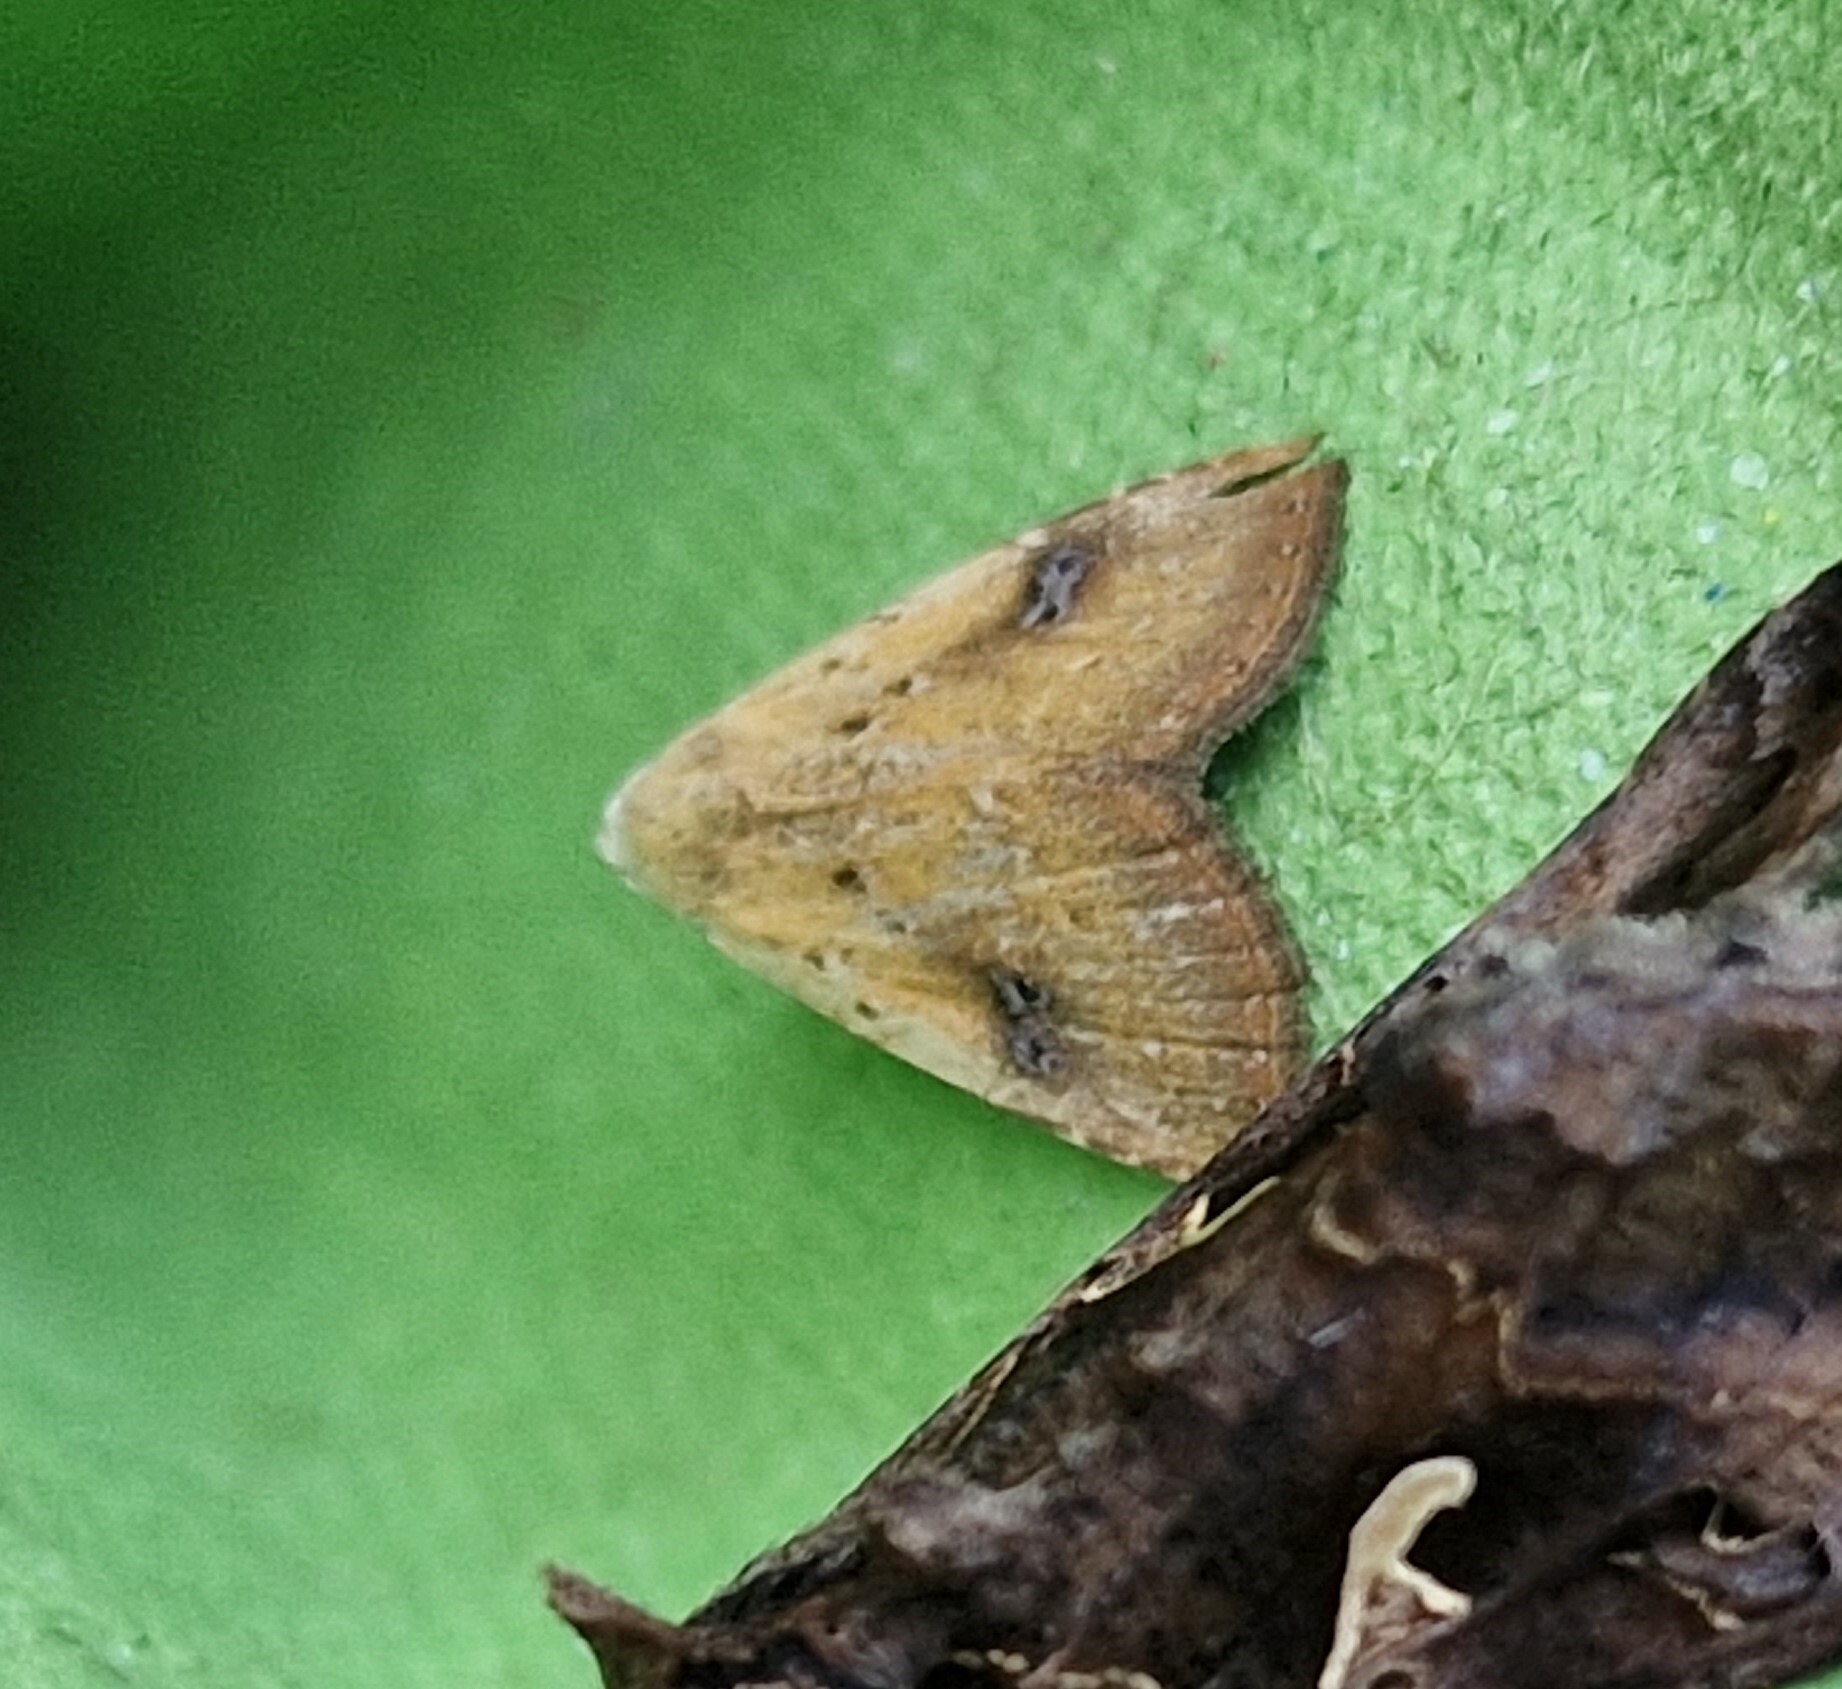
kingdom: Animalia
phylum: Arthropoda
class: Insecta
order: Lepidoptera
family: Erebidae
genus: Rivula
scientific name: Rivula sericealis
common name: Straw dot
